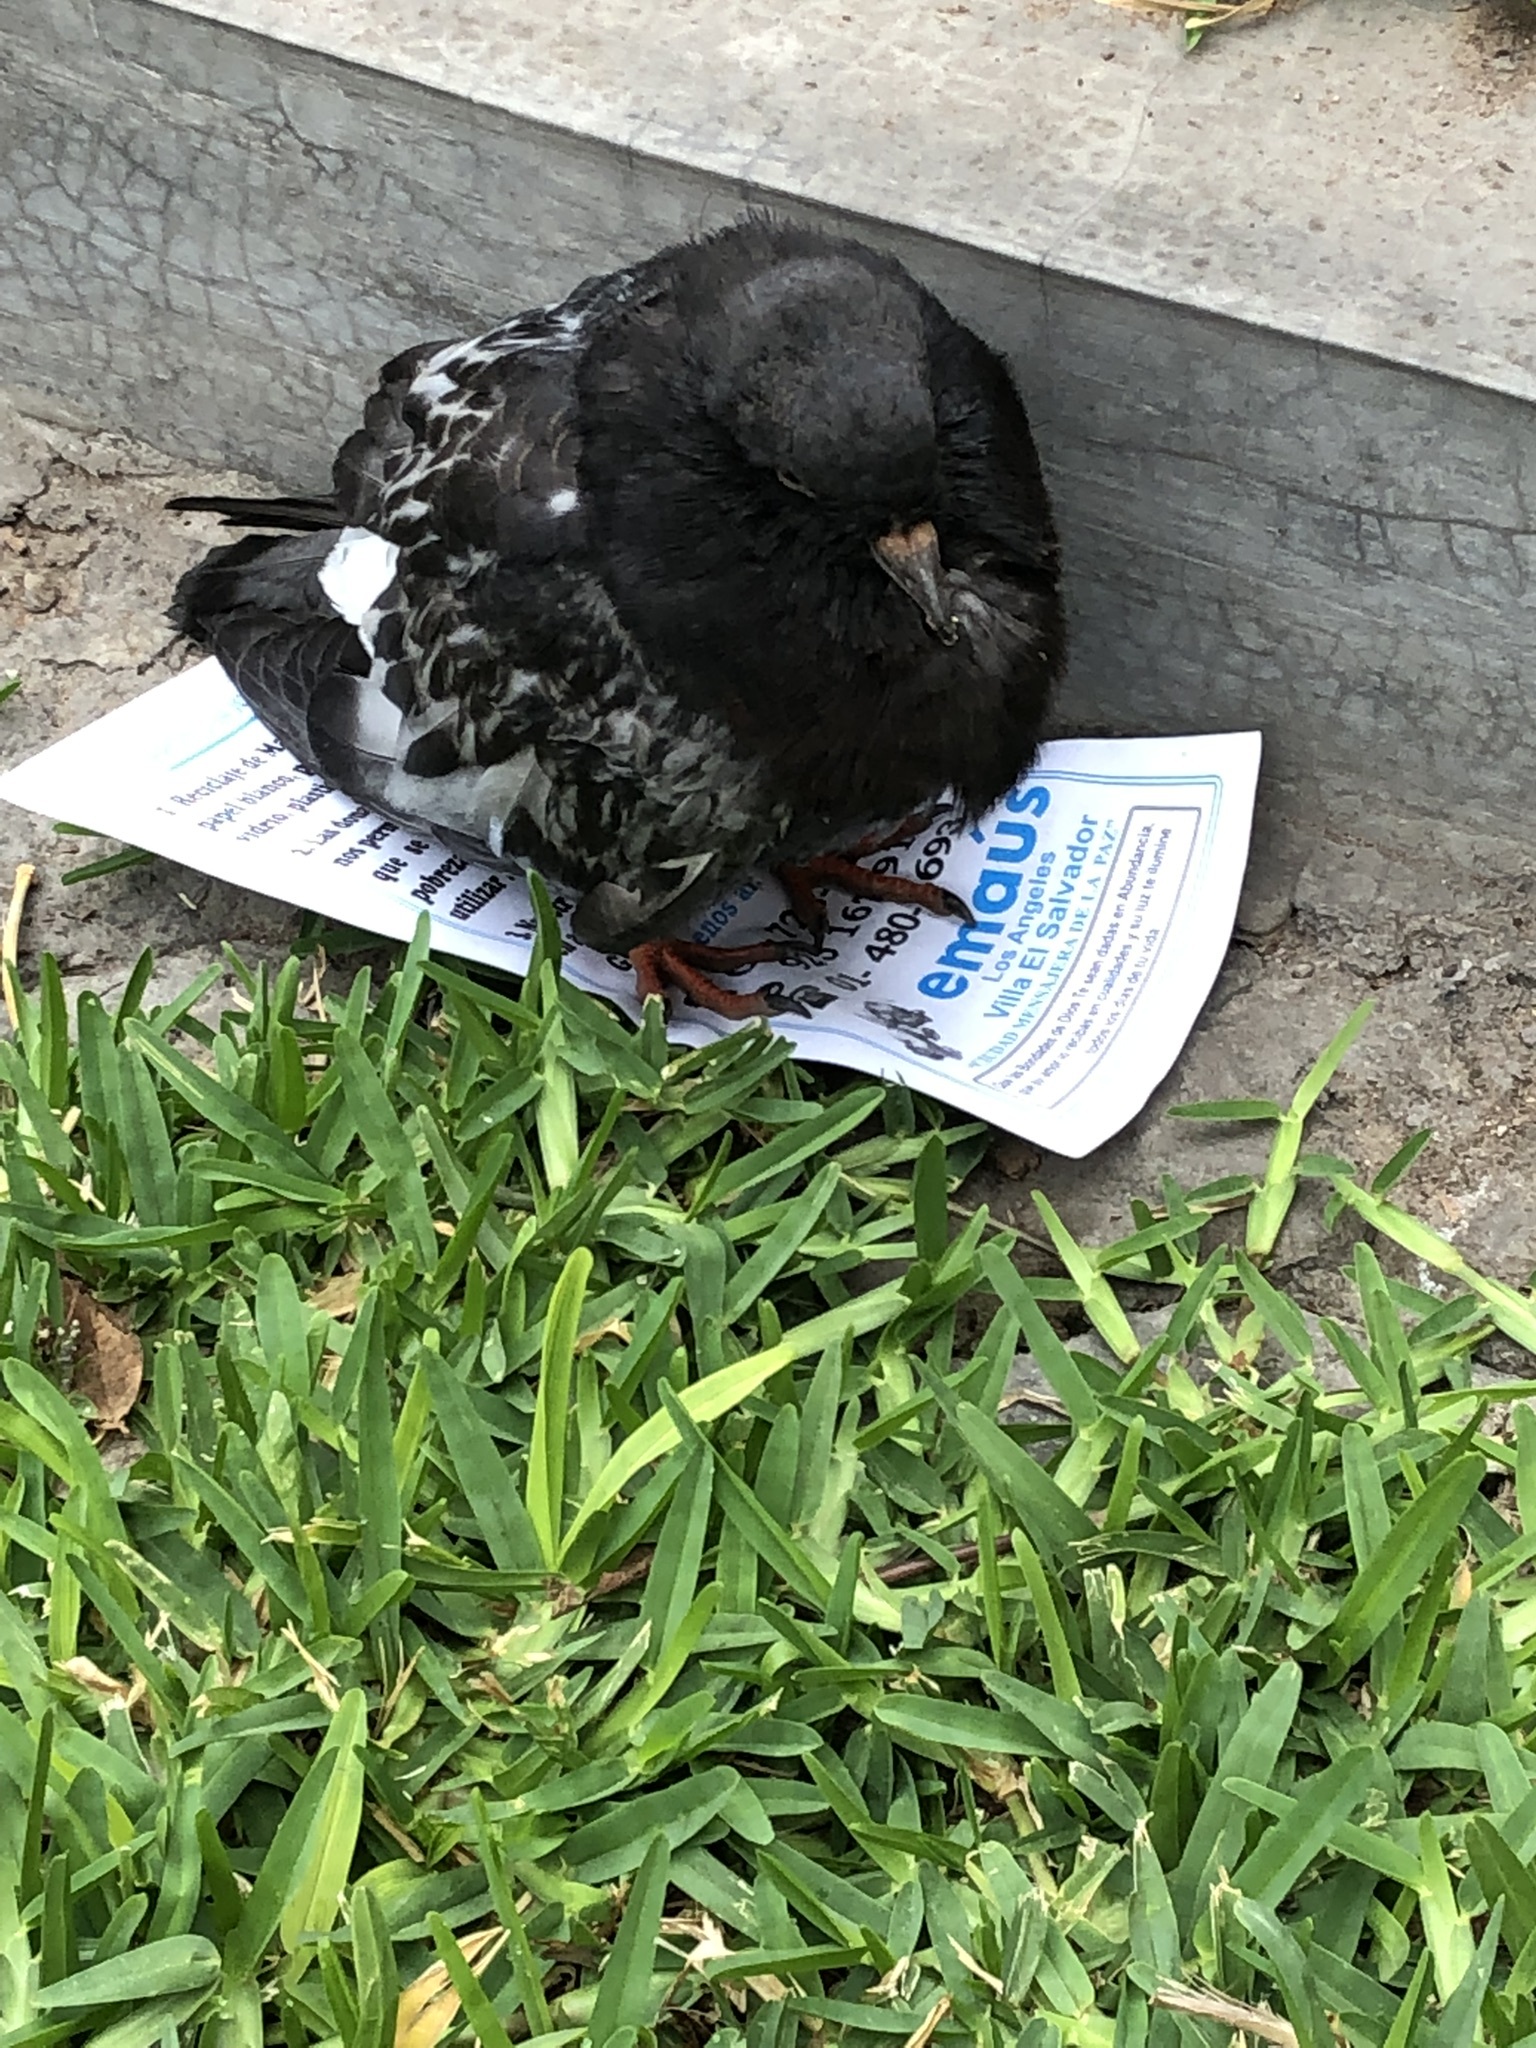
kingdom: Animalia
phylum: Chordata
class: Aves
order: Columbiformes
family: Columbidae
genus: Columba
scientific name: Columba livia
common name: Rock pigeon
